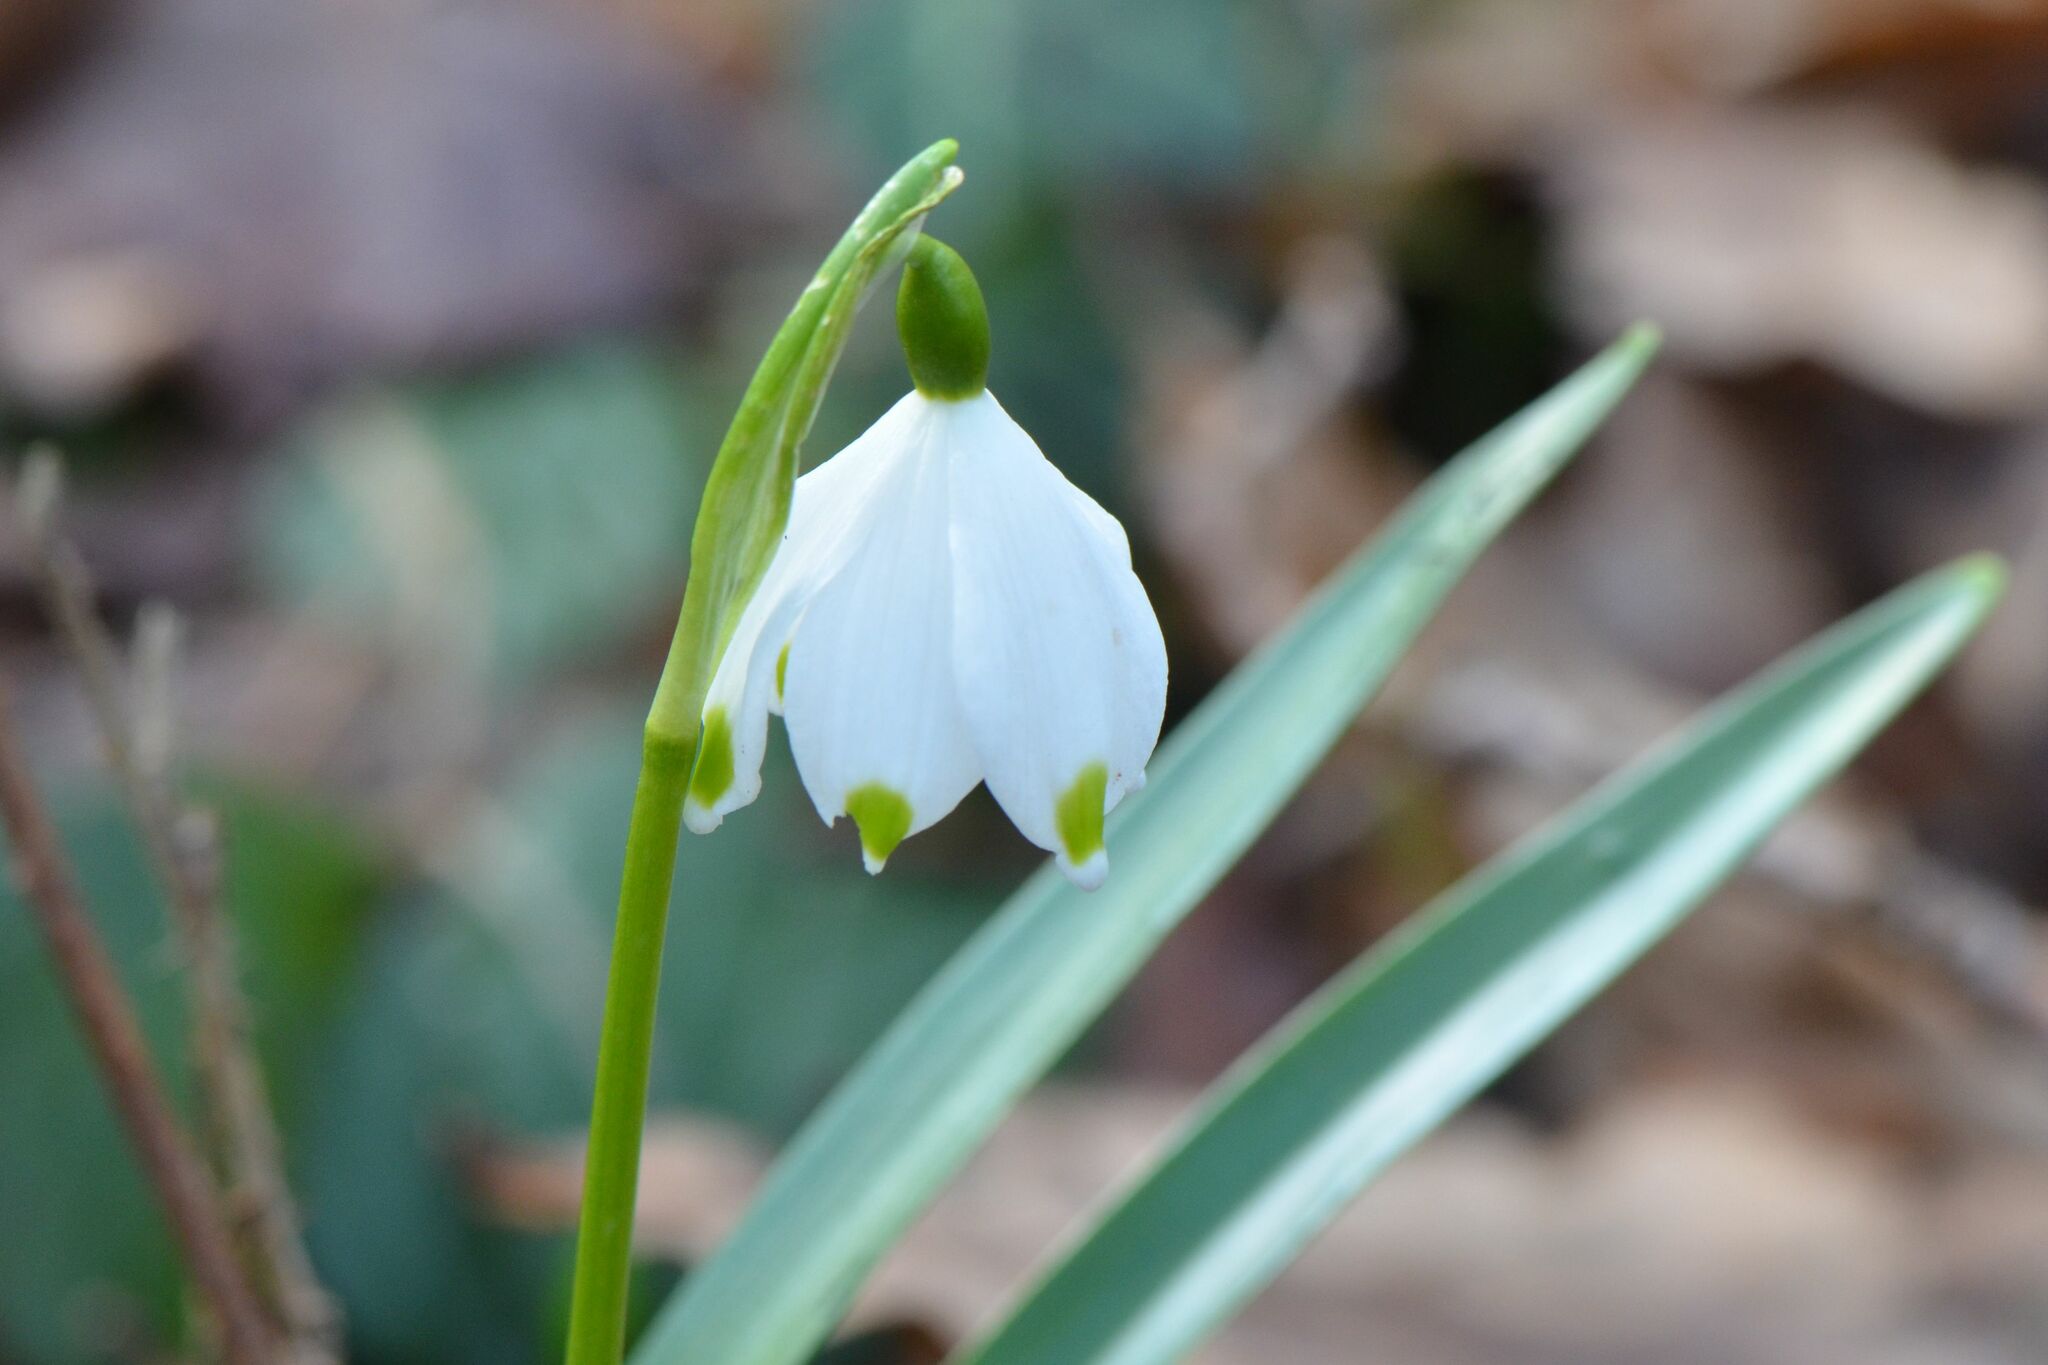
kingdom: Plantae
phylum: Tracheophyta
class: Liliopsida
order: Asparagales
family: Amaryllidaceae
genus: Leucojum
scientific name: Leucojum vernum
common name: Spring snowflake
